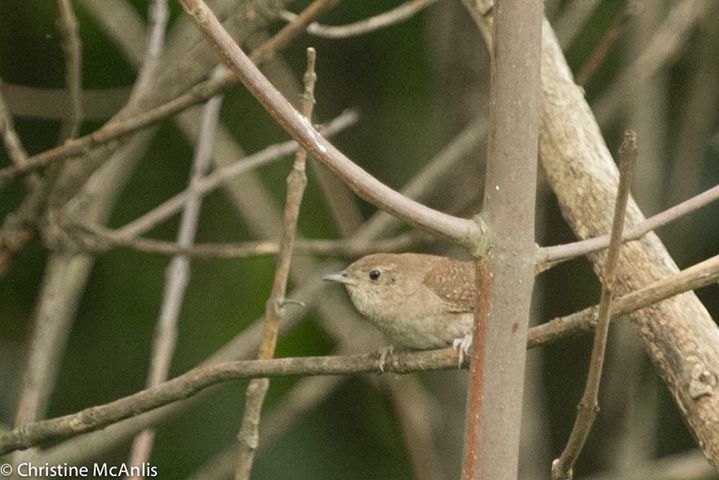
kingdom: Animalia
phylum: Chordata
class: Aves
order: Passeriformes
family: Troglodytidae
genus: Troglodytes
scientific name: Troglodytes aedon
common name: House wren
